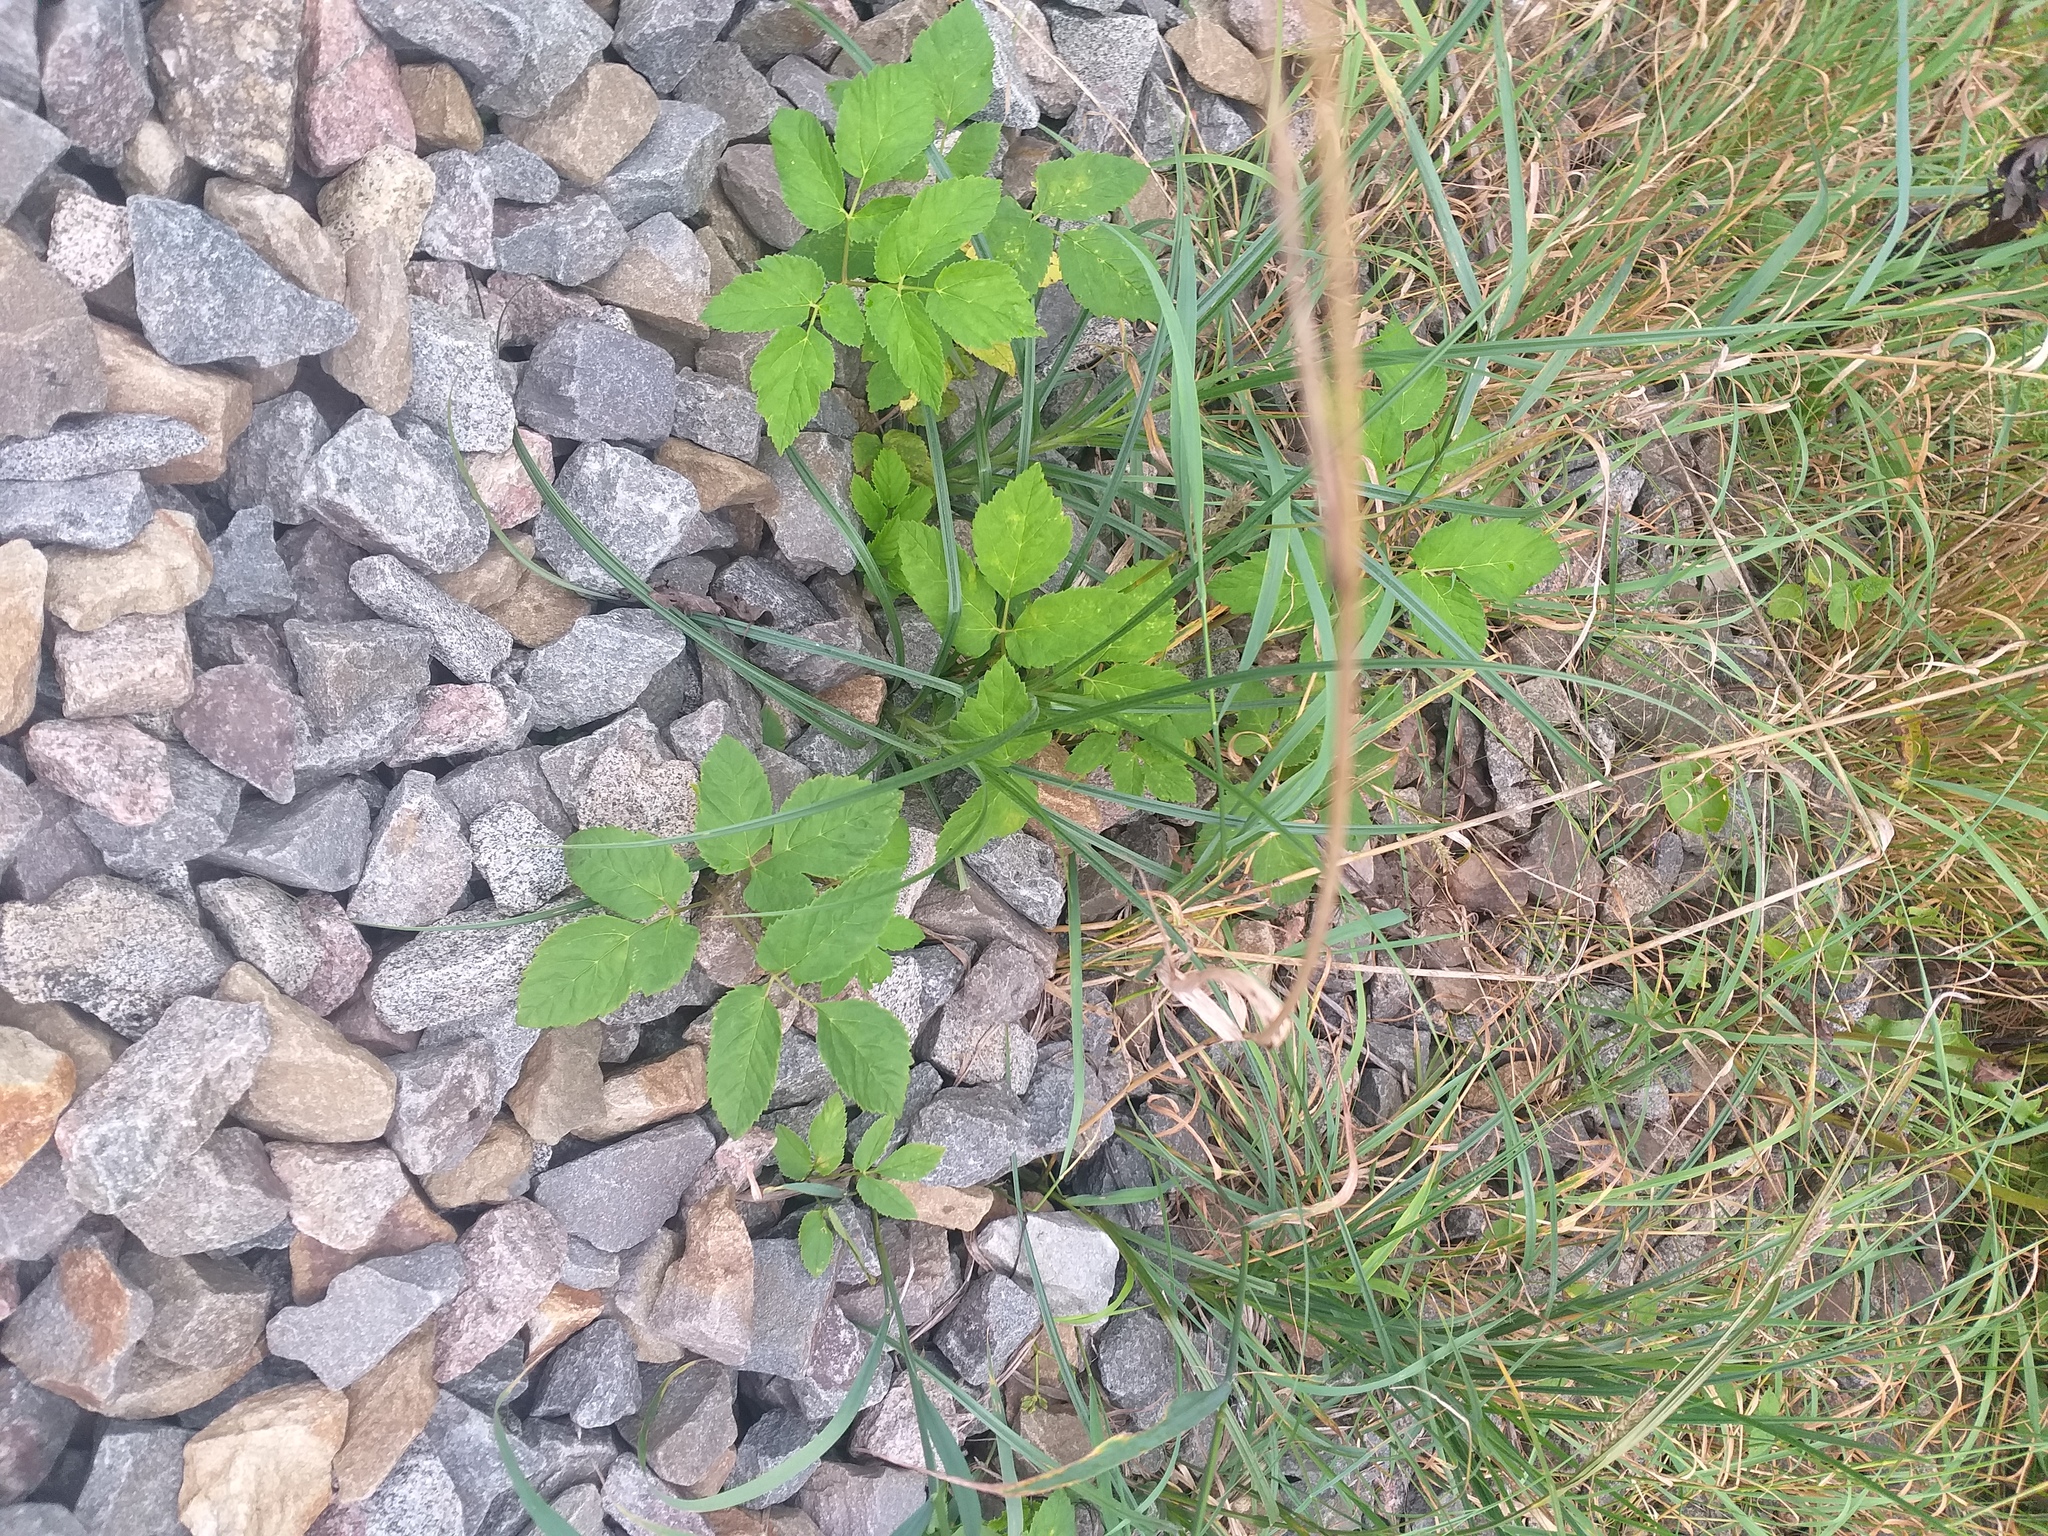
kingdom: Plantae
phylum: Tracheophyta
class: Liliopsida
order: Poales
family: Cyperaceae
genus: Carex
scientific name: Carex hirta
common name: Hairy sedge
